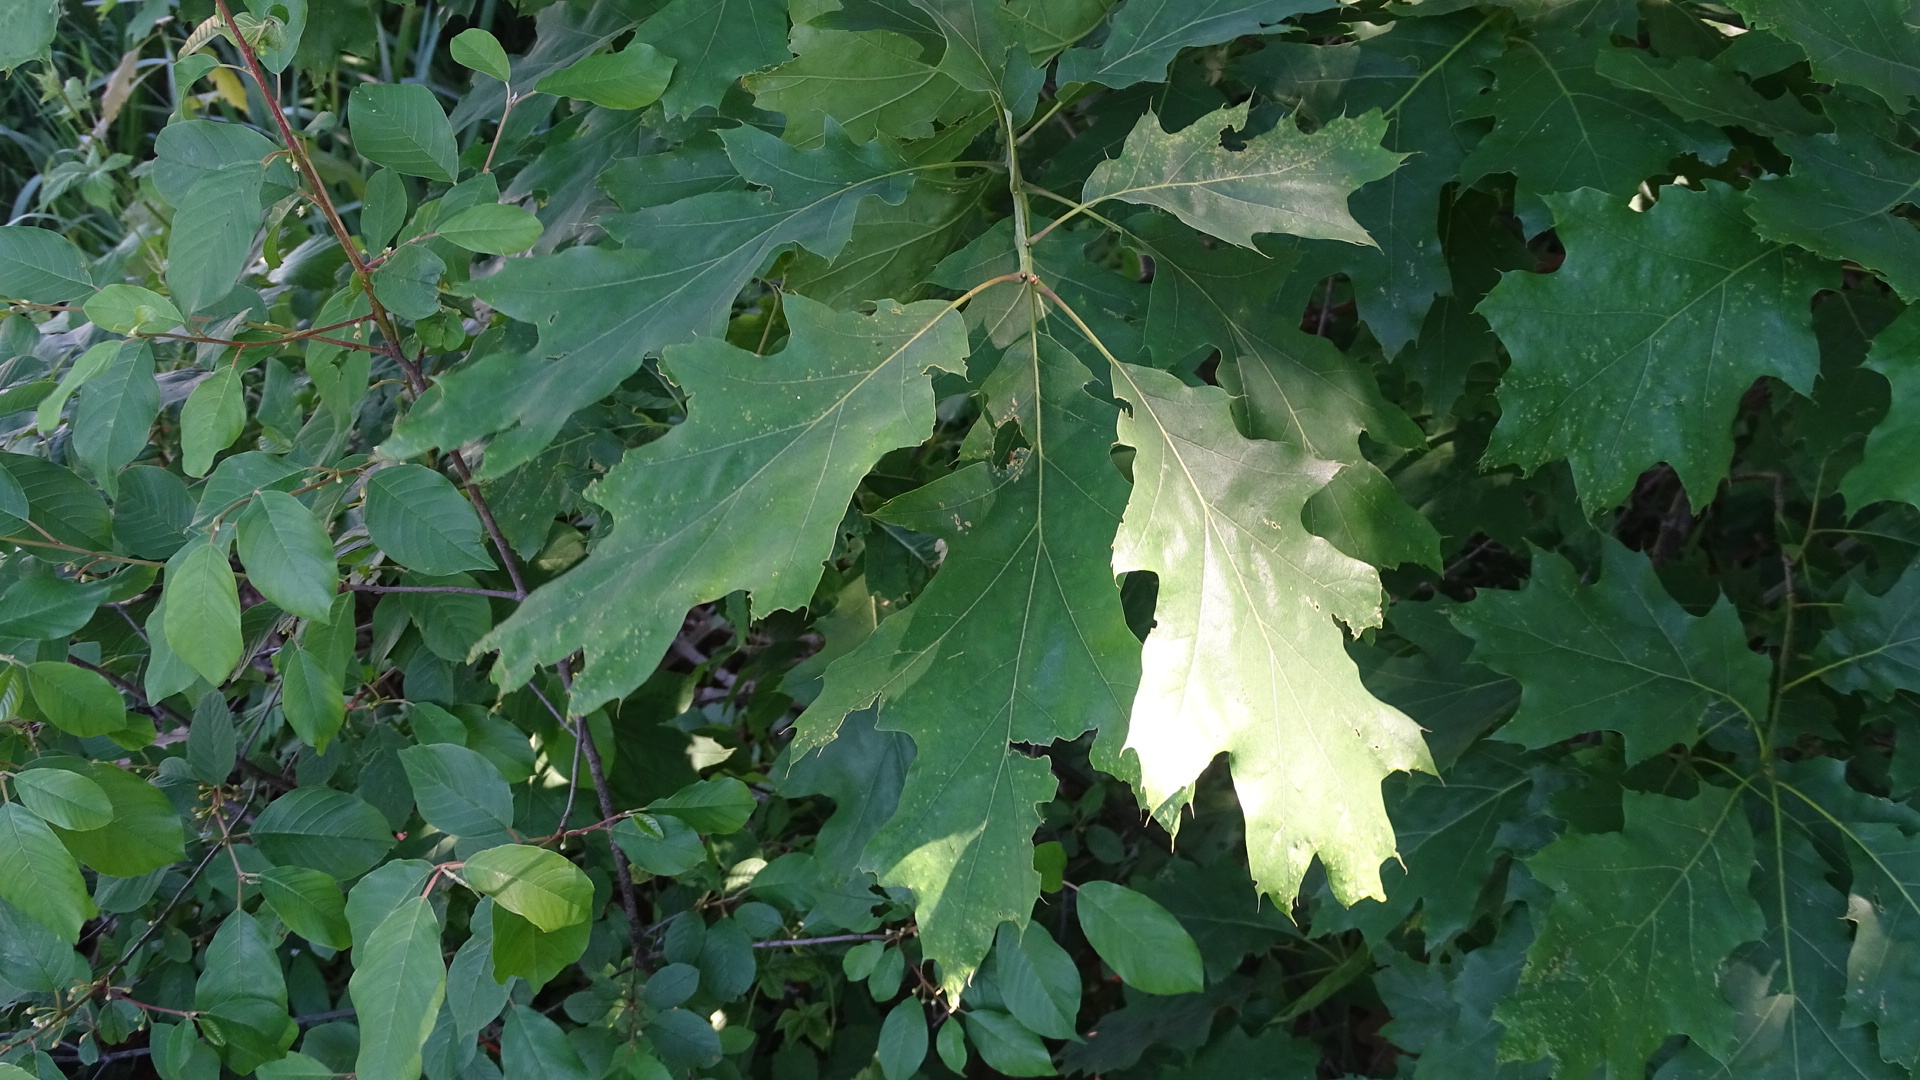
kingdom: Plantae
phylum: Tracheophyta
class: Magnoliopsida
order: Fagales
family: Fagaceae
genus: Quercus
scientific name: Quercus rubra
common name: Red oak
